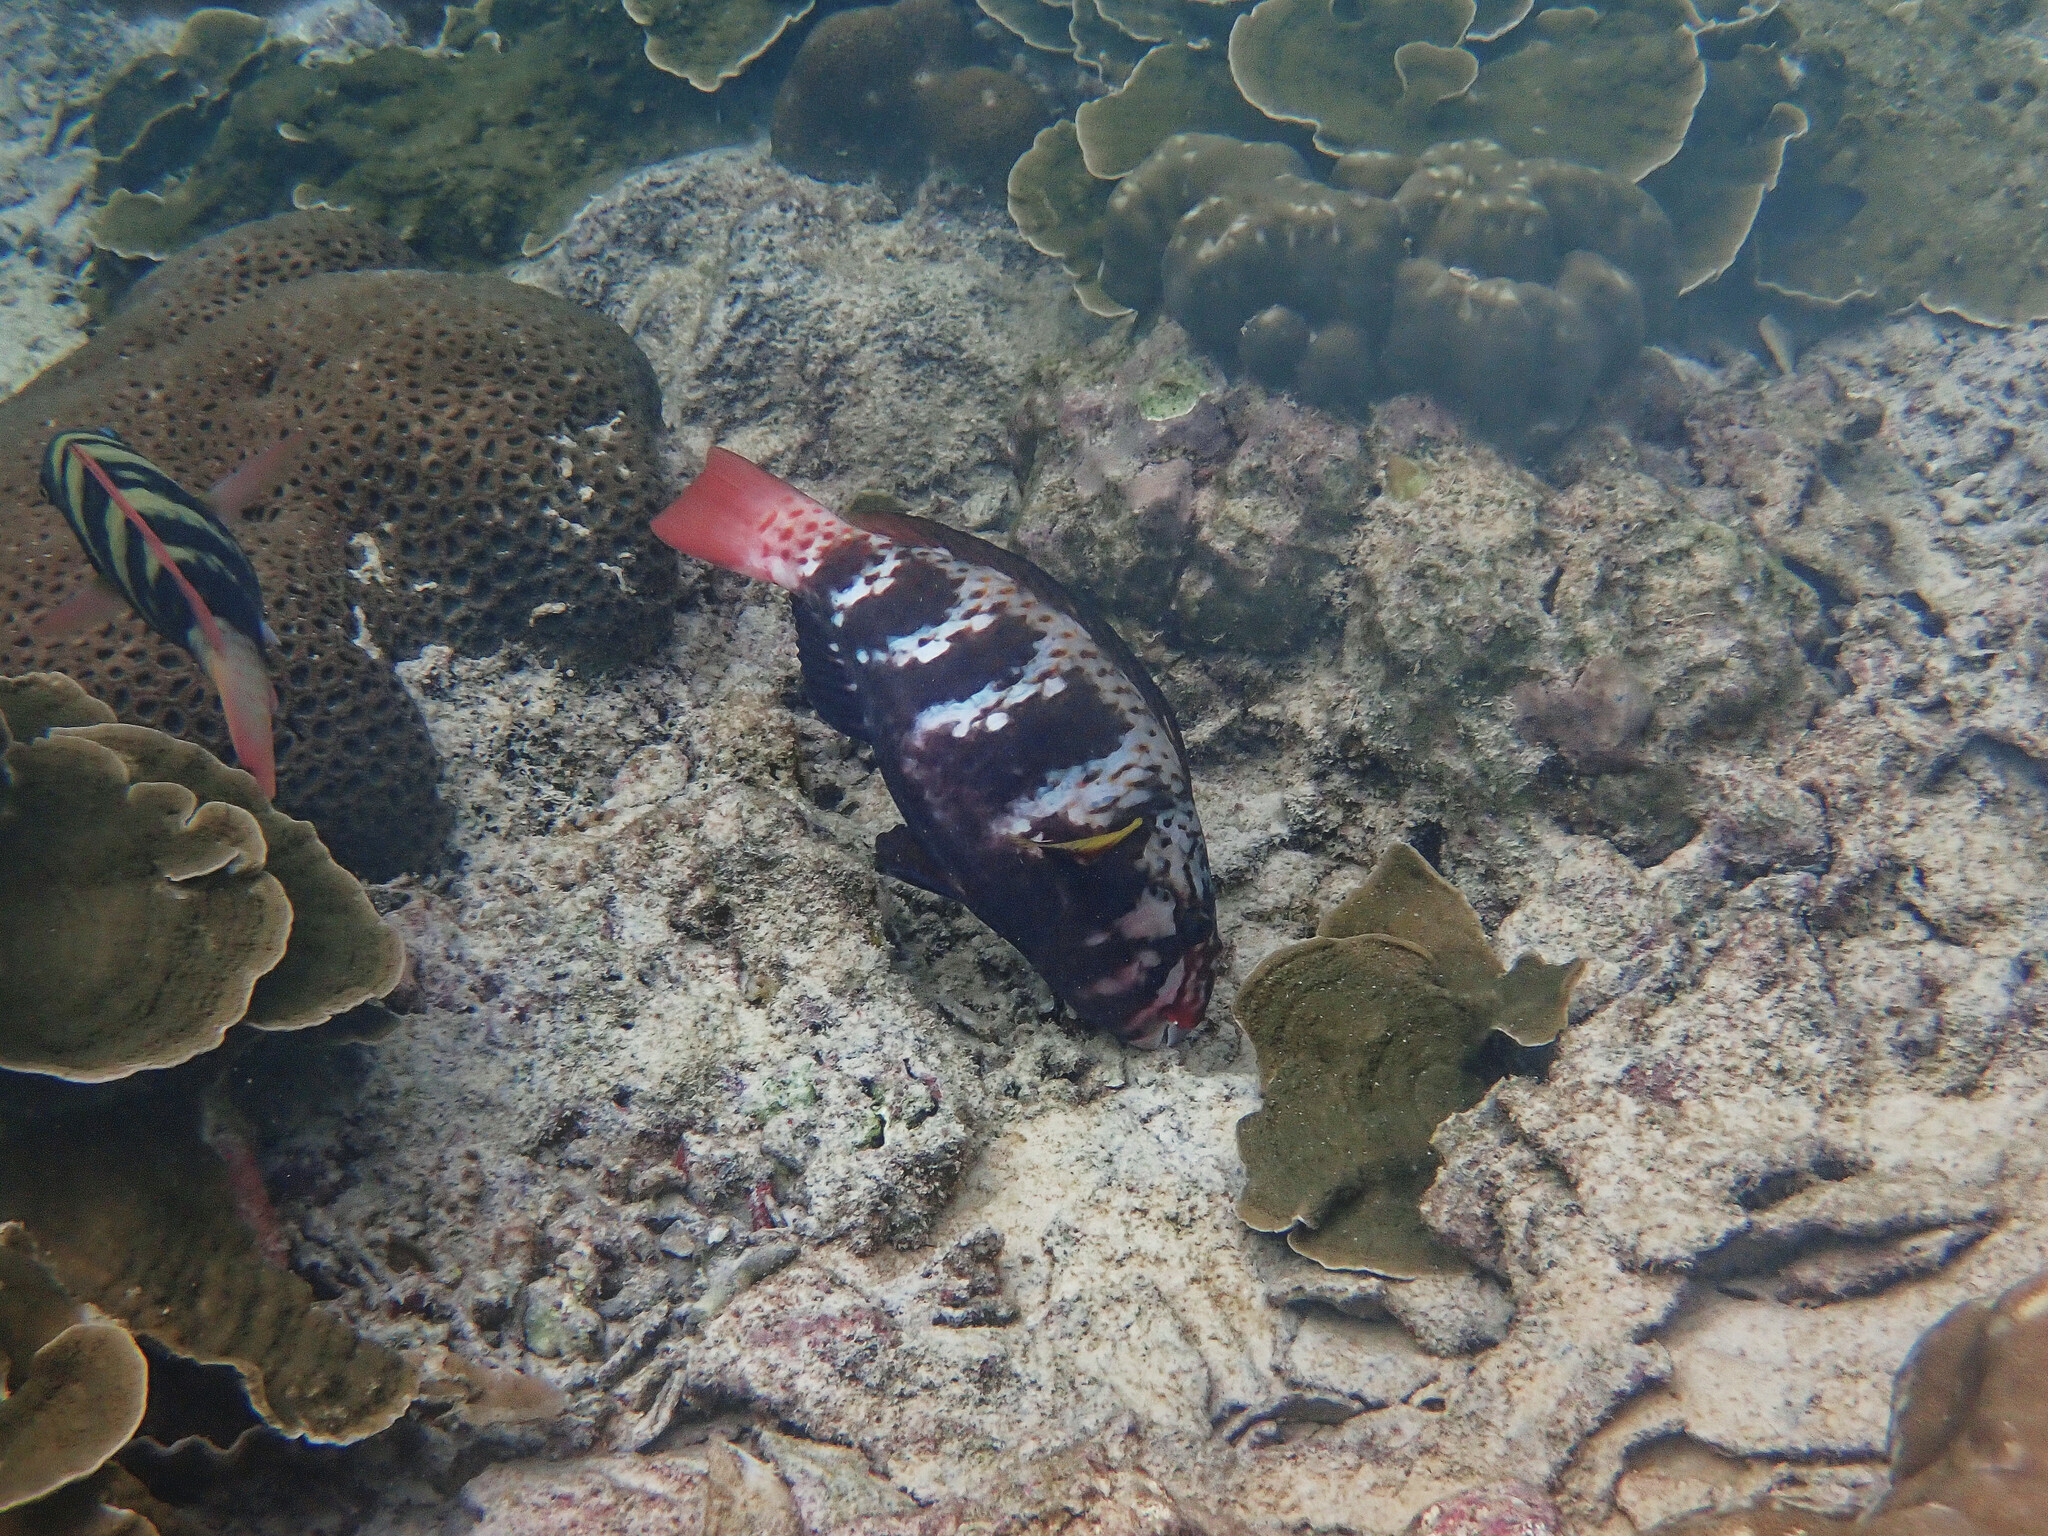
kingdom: Animalia
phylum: Chordata
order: Perciformes
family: Scaridae
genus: Chlorurus
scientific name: Chlorurus capistratoides
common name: Pink-margined parrotfish
